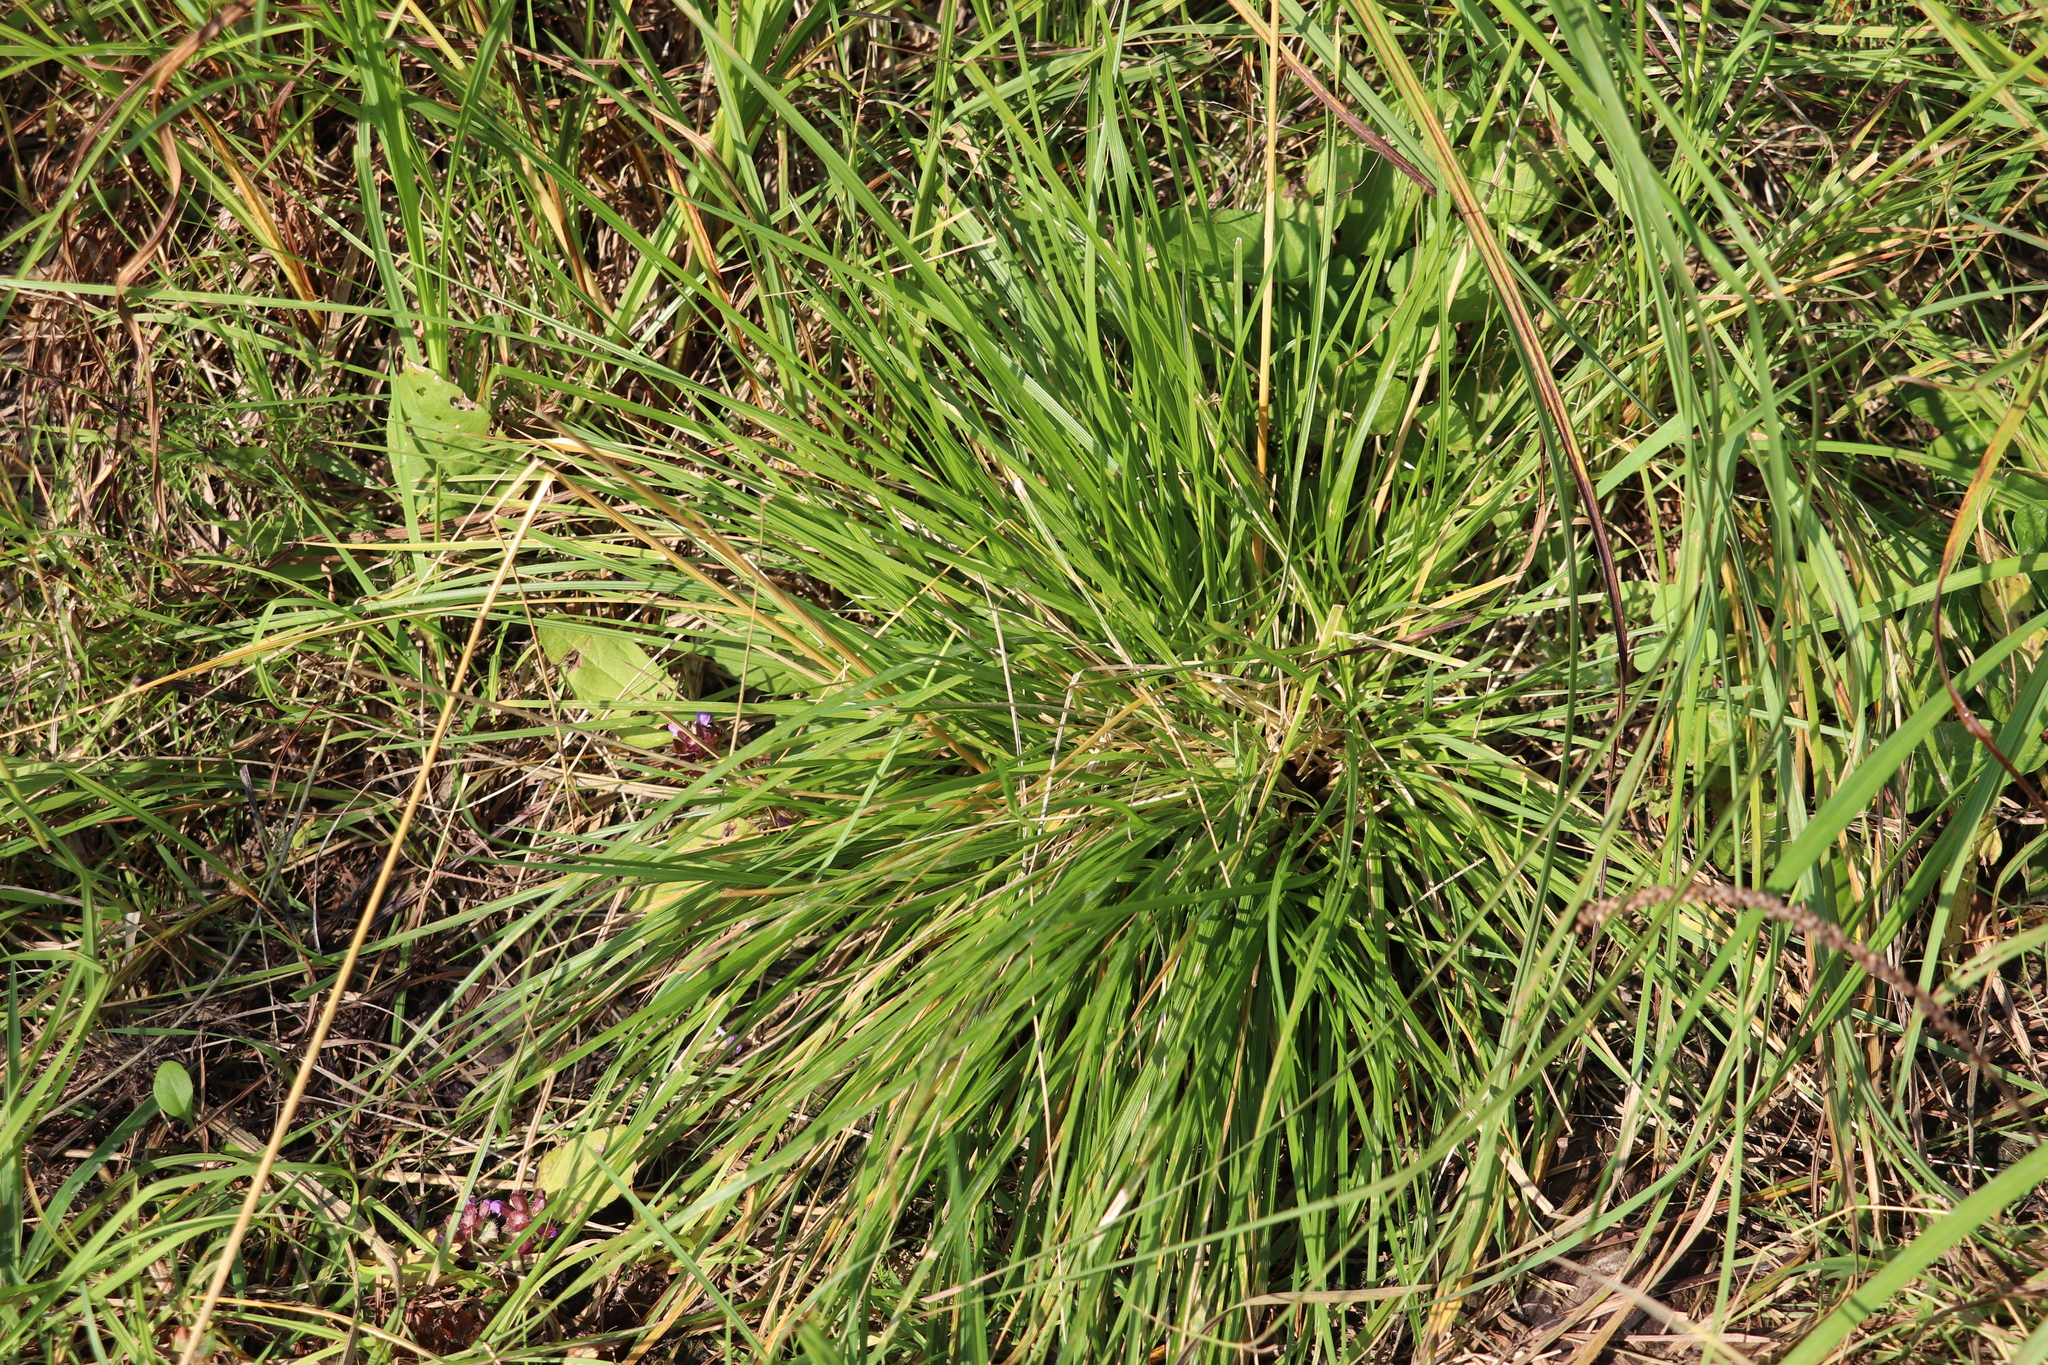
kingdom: Plantae
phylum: Tracheophyta
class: Liliopsida
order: Poales
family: Poaceae
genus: Deschampsia
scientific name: Deschampsia cespitosa
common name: Tufted hair-grass
